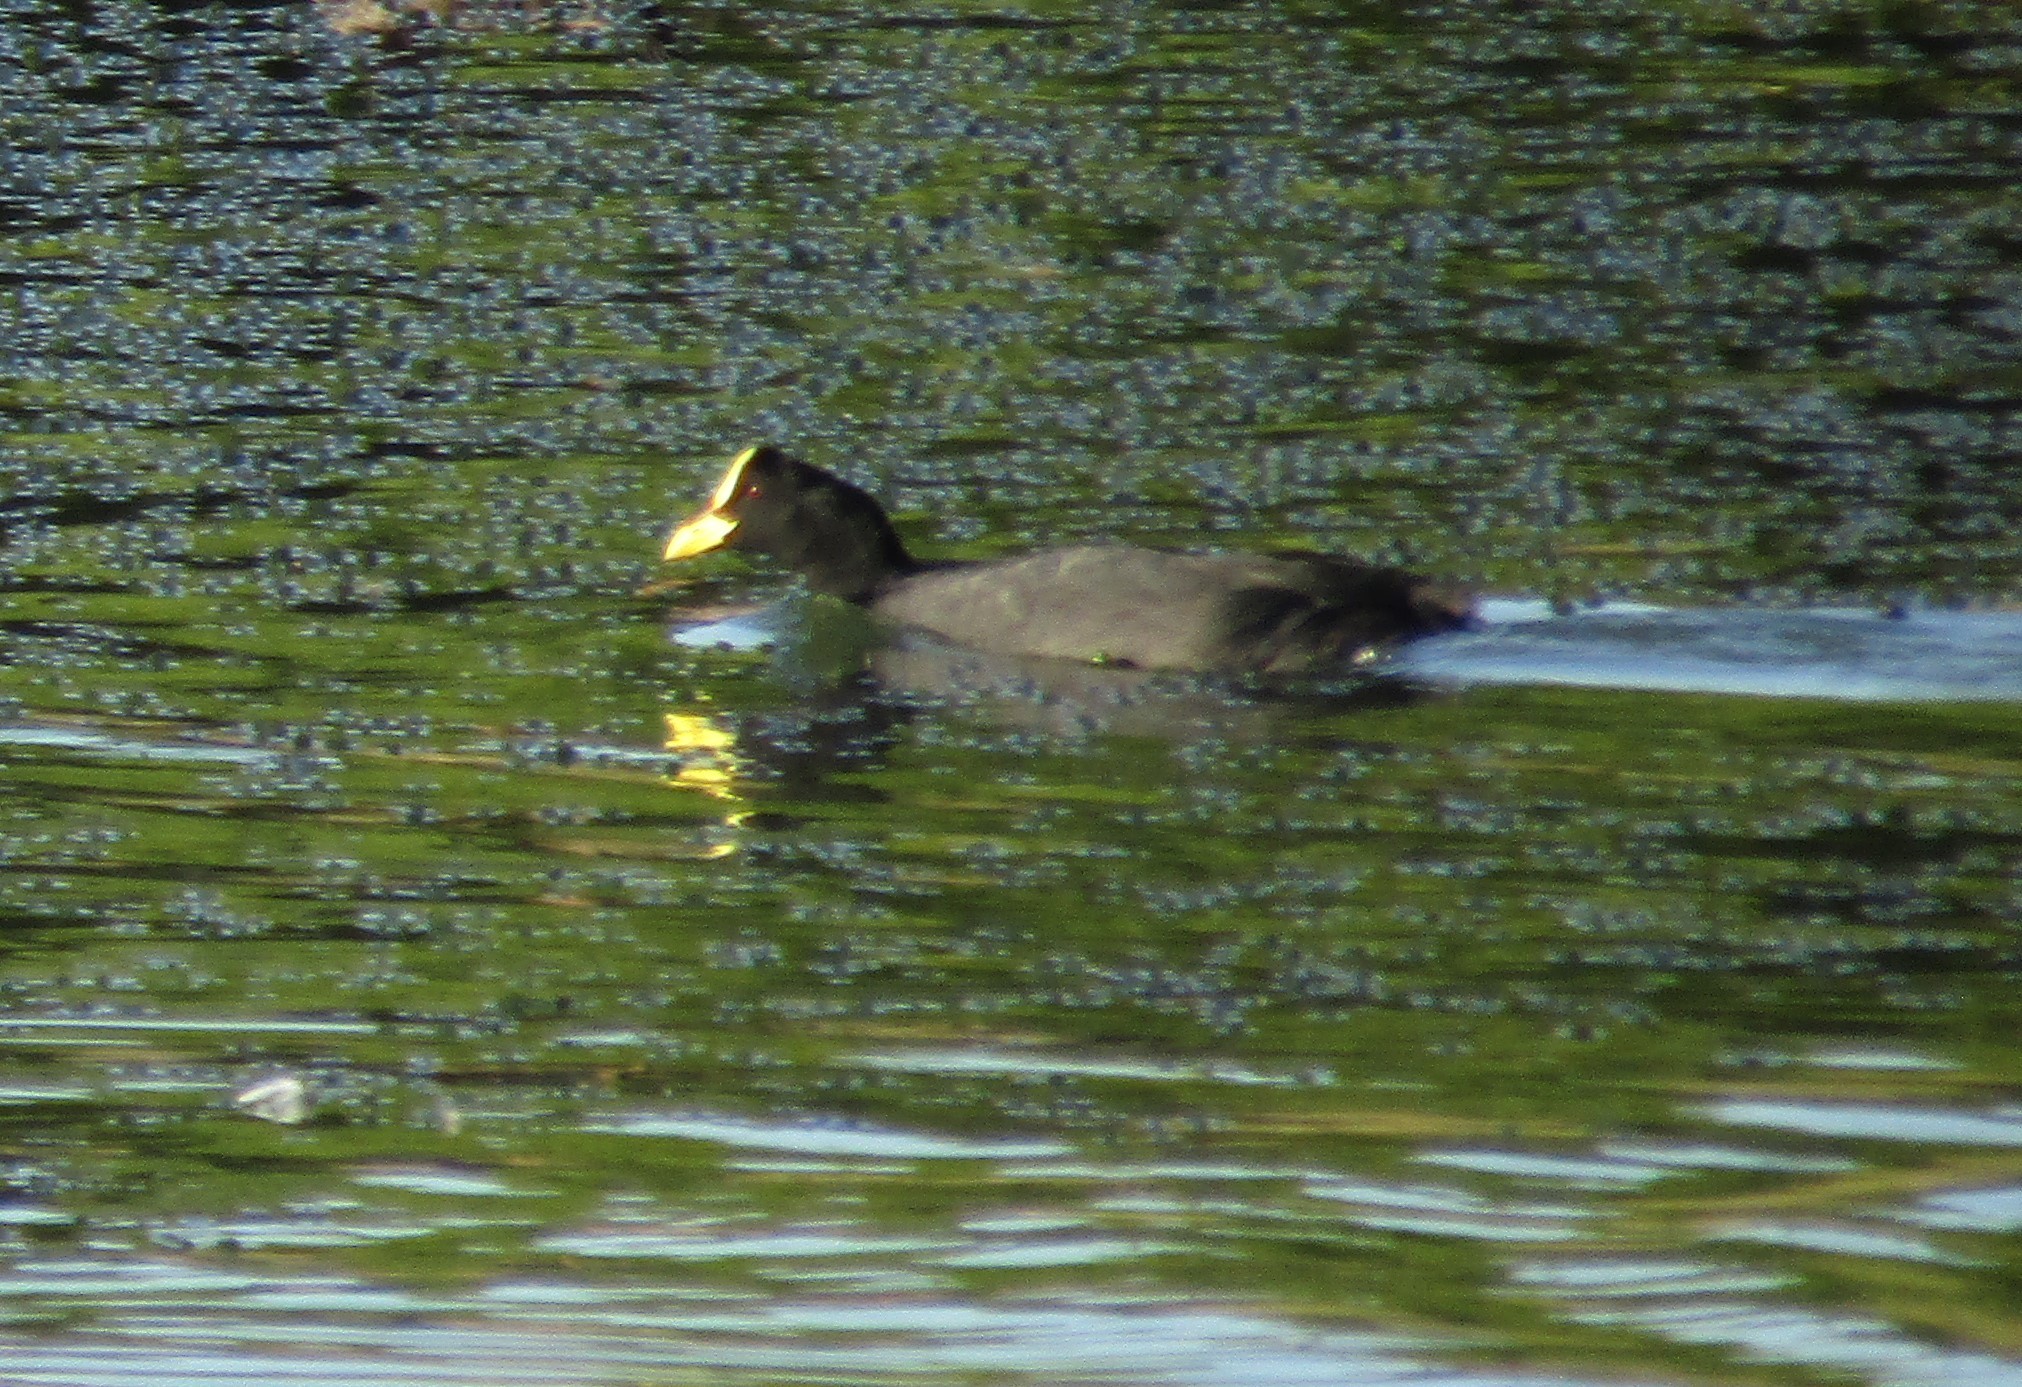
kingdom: Animalia
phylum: Chordata
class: Aves
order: Gruiformes
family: Rallidae
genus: Fulica
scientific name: Fulica armillata
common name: Red-gartered coot
